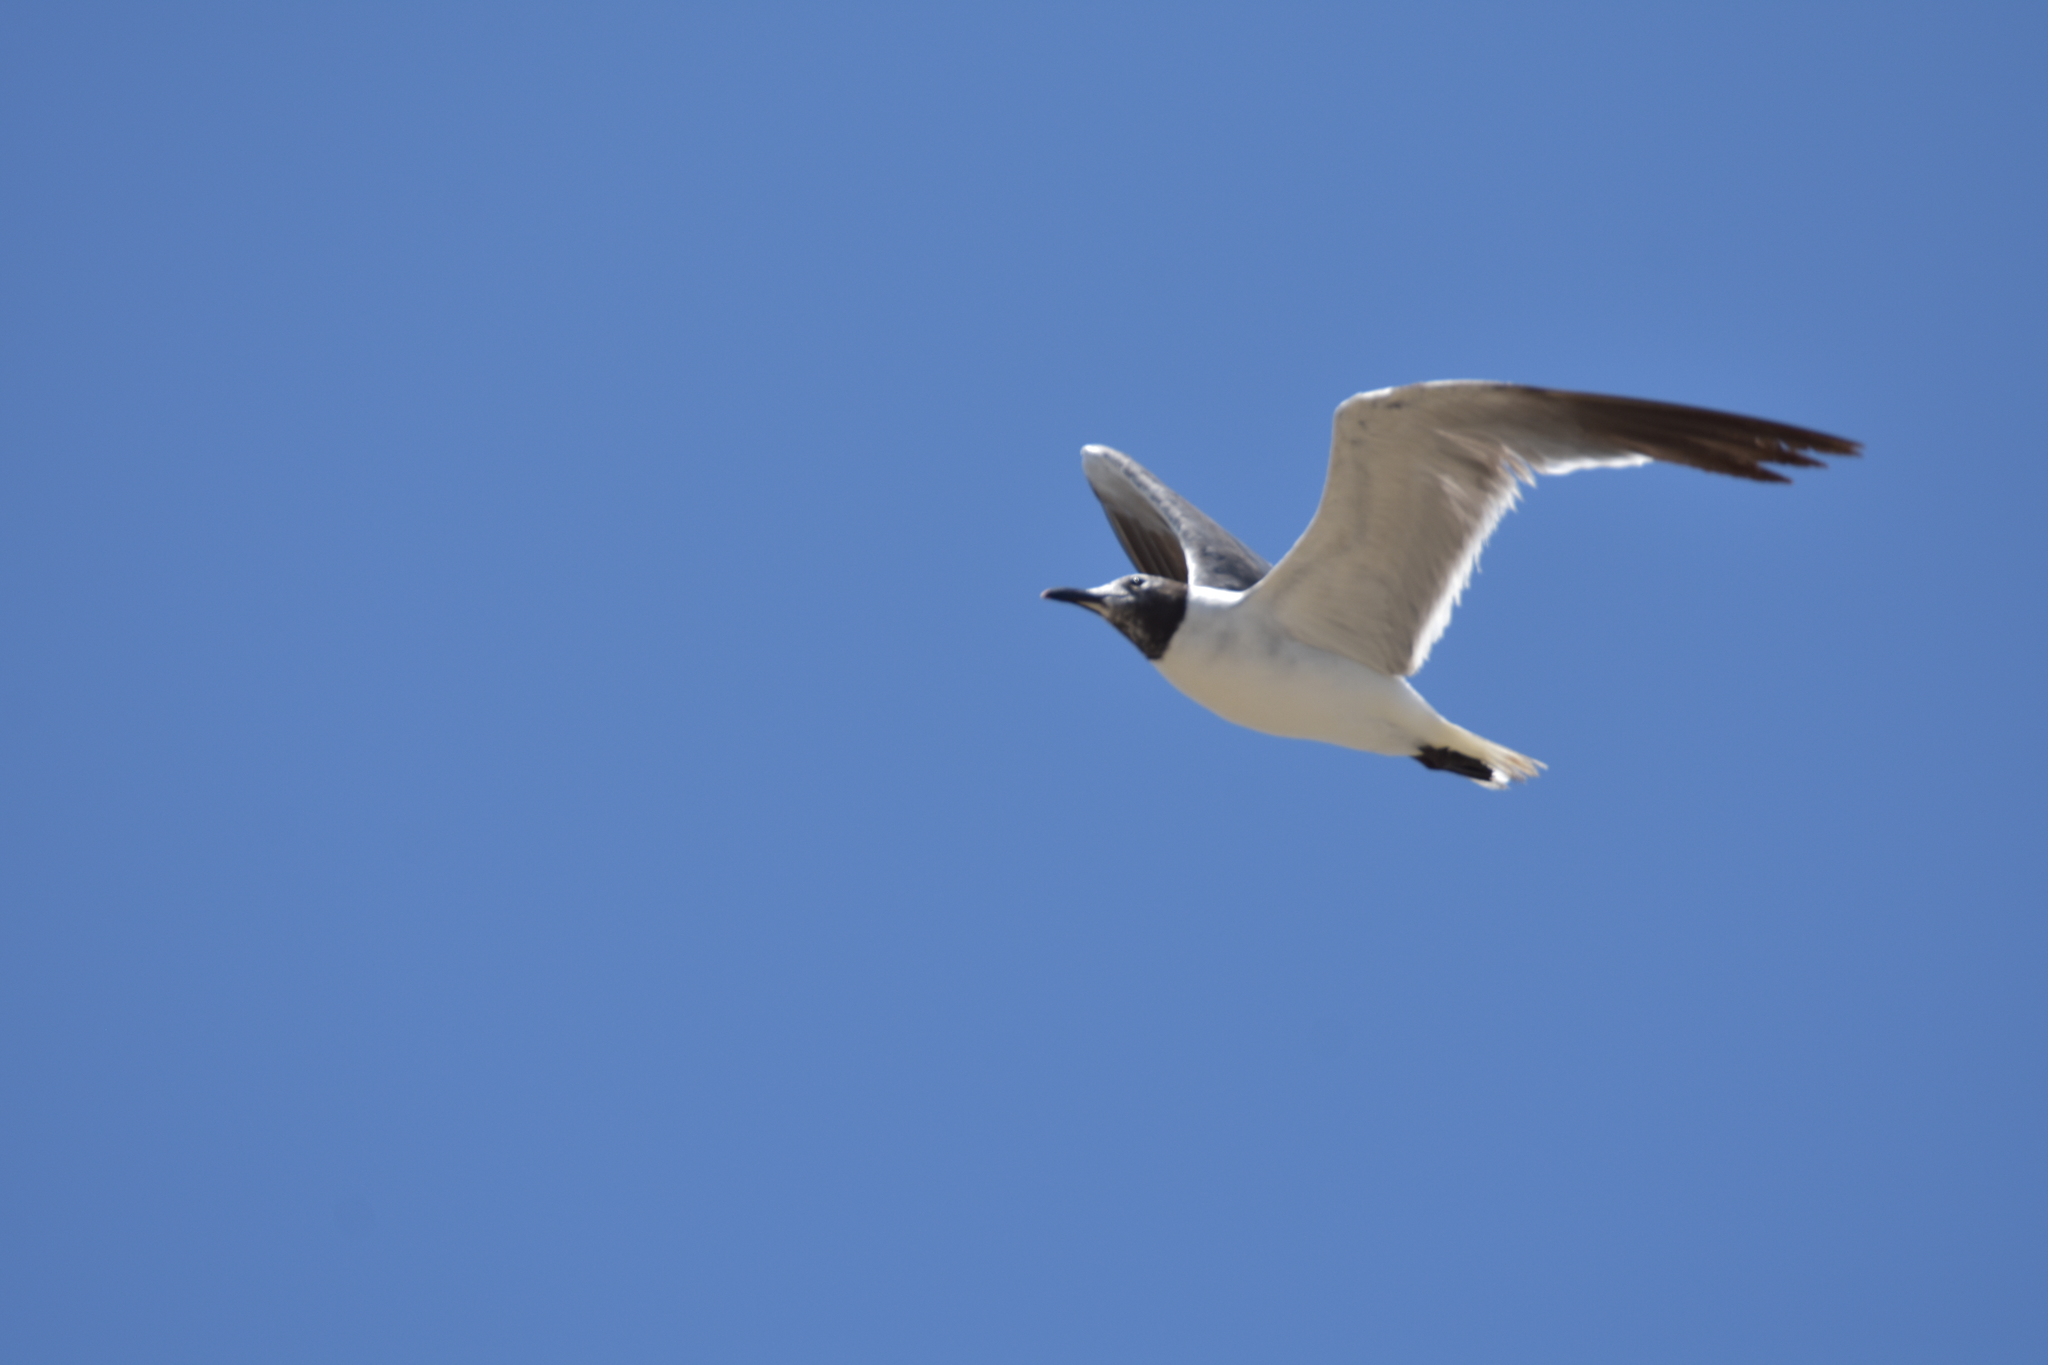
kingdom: Animalia
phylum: Chordata
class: Aves
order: Charadriiformes
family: Laridae
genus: Leucophaeus
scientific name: Leucophaeus atricilla
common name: Laughing gull
